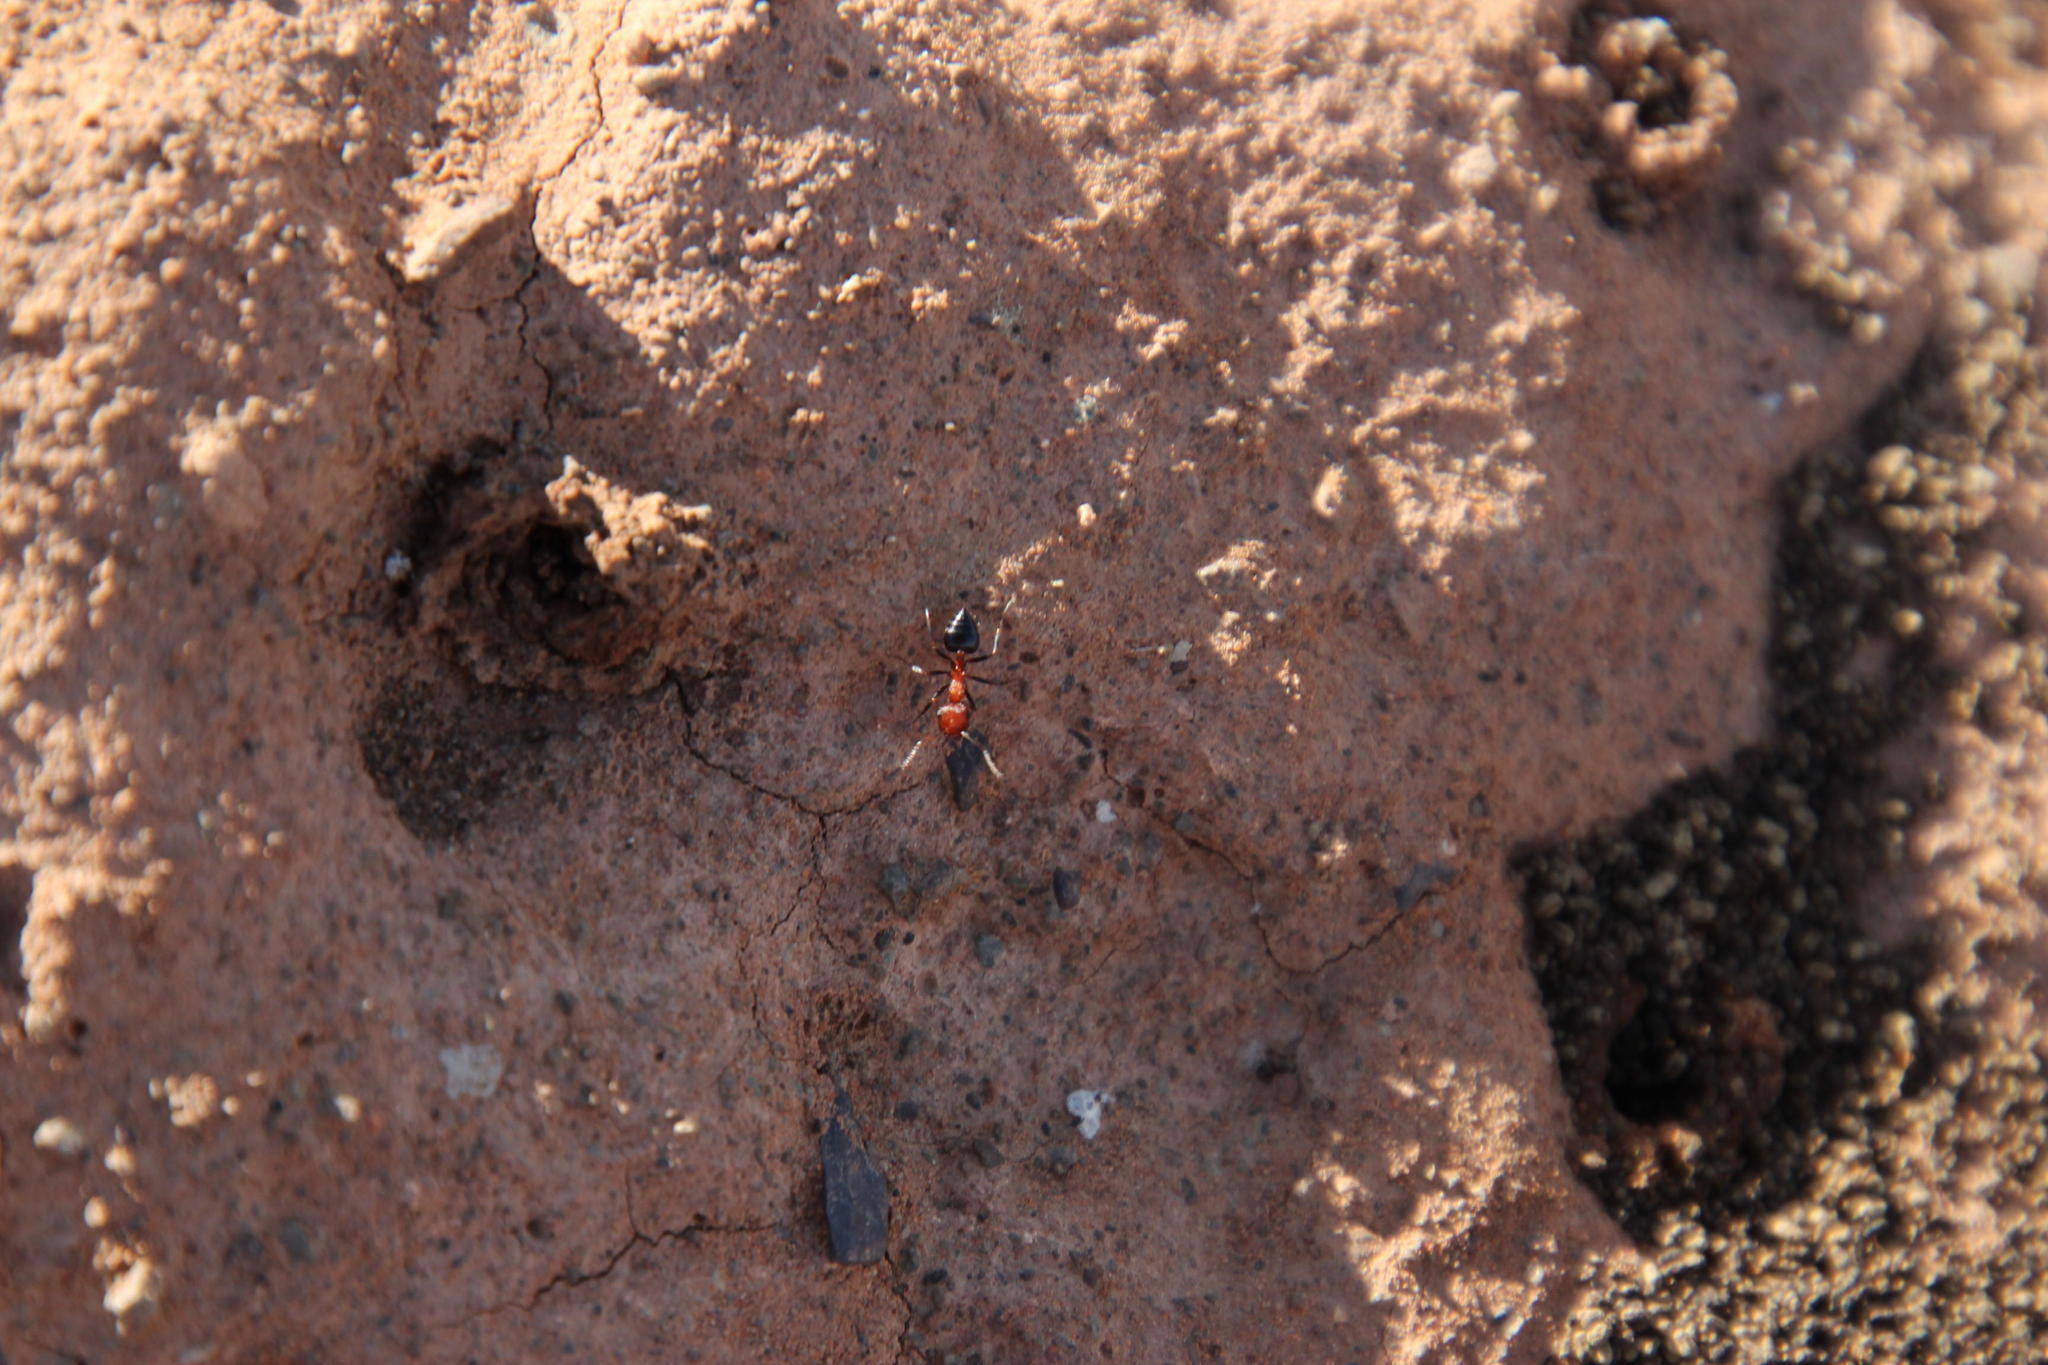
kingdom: Animalia
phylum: Arthropoda
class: Insecta
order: Hymenoptera
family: Formicidae
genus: Crematogaster
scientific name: Crematogaster melanogaster
